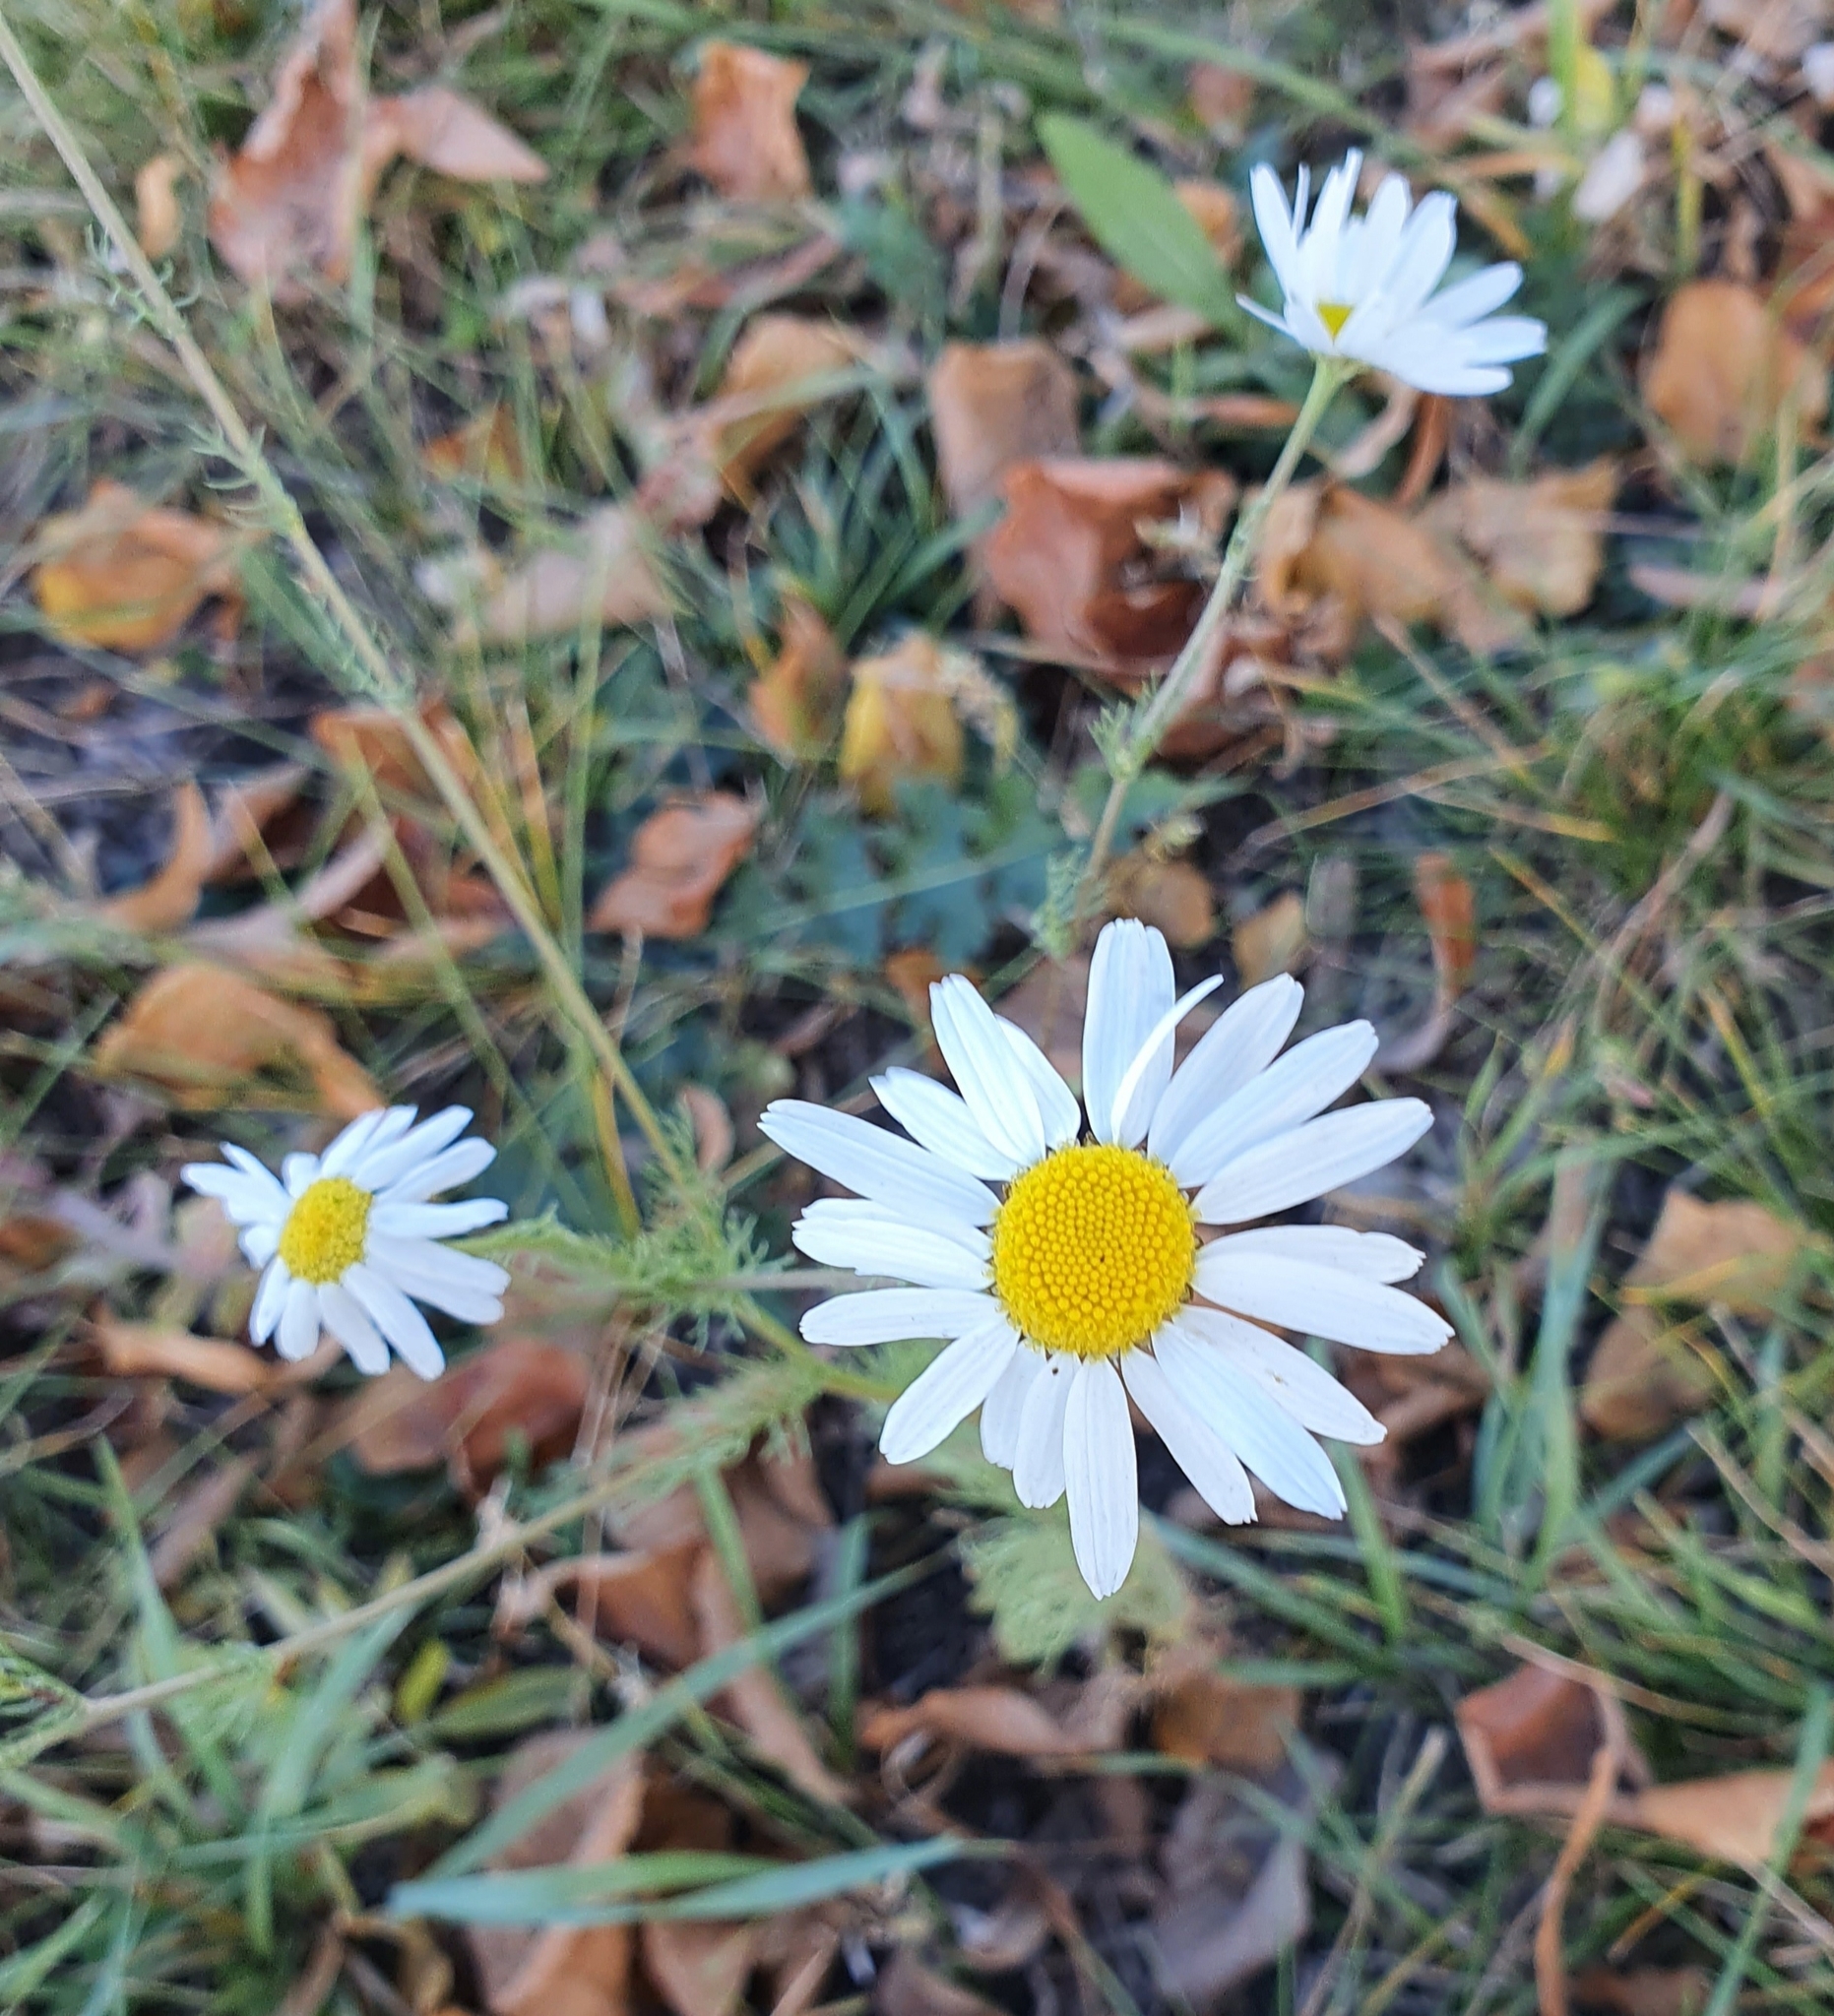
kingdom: Plantae
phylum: Tracheophyta
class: Magnoliopsida
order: Asterales
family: Asteraceae
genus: Tripleurospermum
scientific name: Tripleurospermum inodorum
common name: Scentless mayweed
